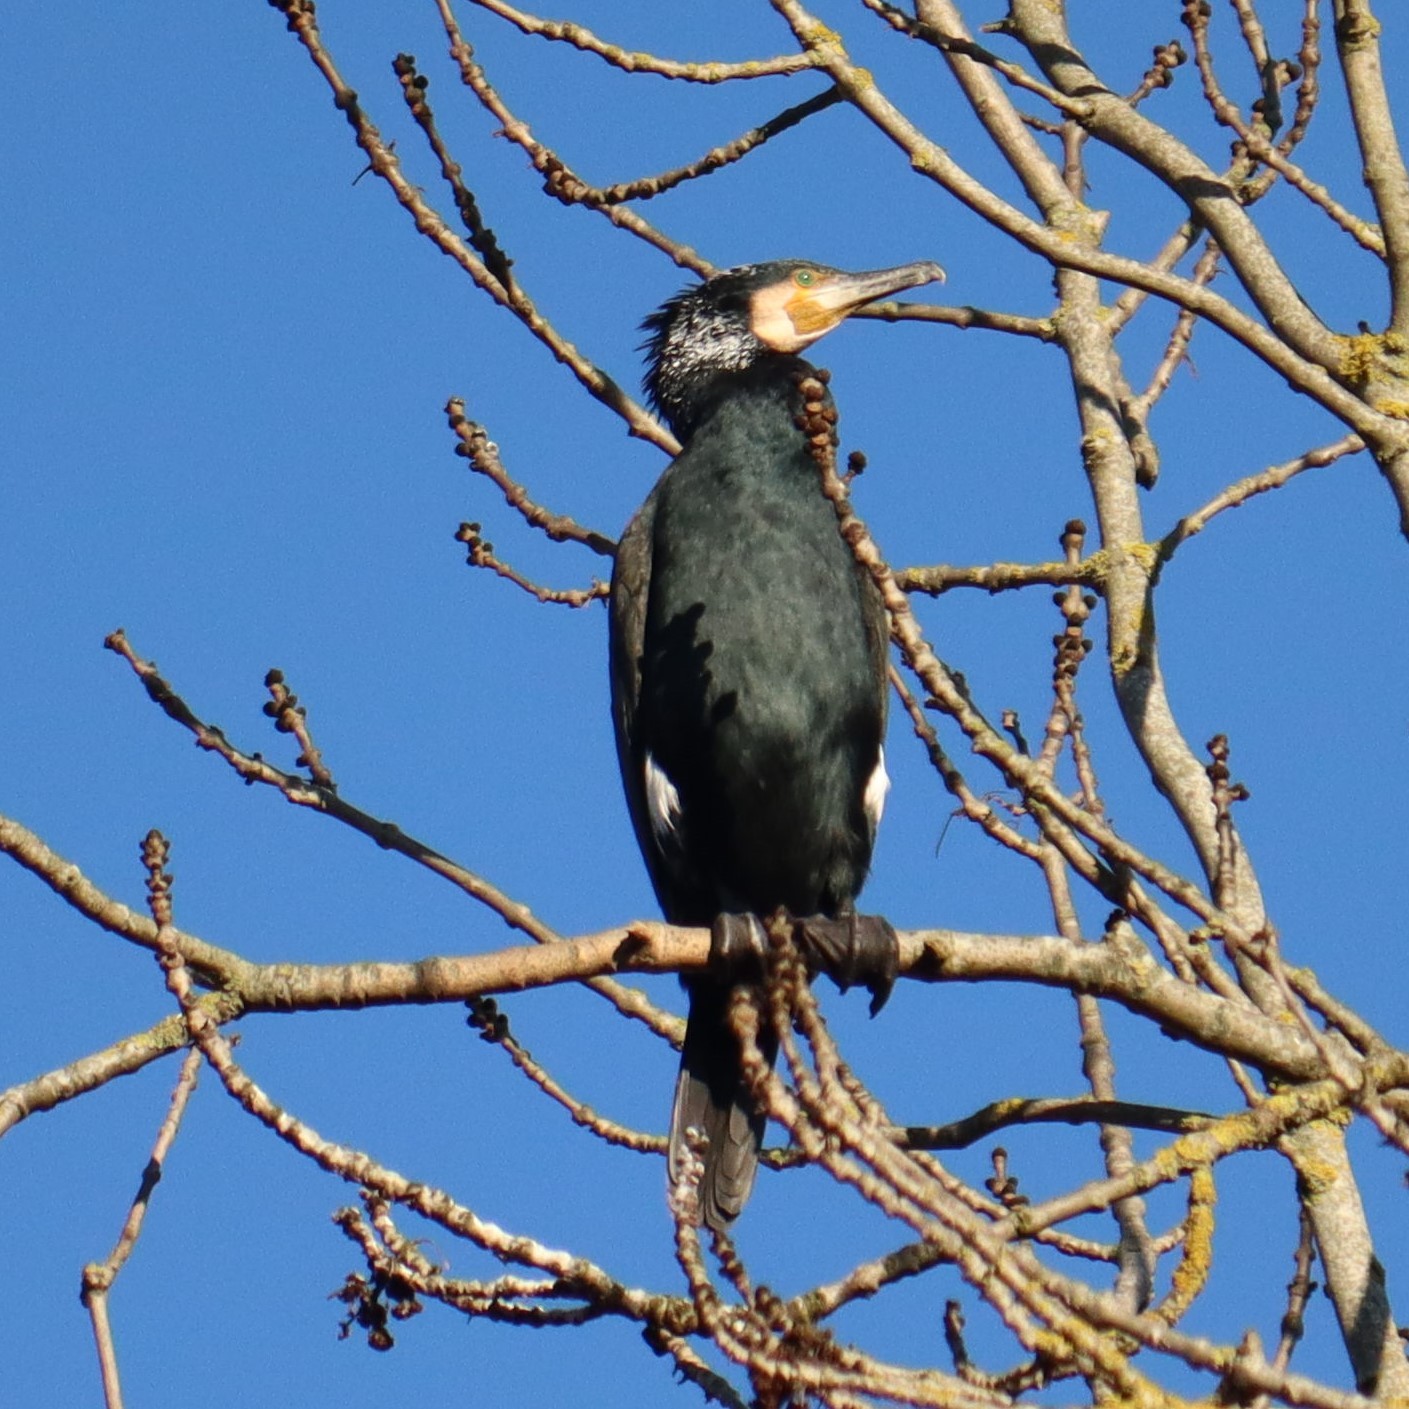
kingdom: Animalia
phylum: Chordata
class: Aves
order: Suliformes
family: Phalacrocoracidae
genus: Phalacrocorax
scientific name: Phalacrocorax carbo
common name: Great cormorant
